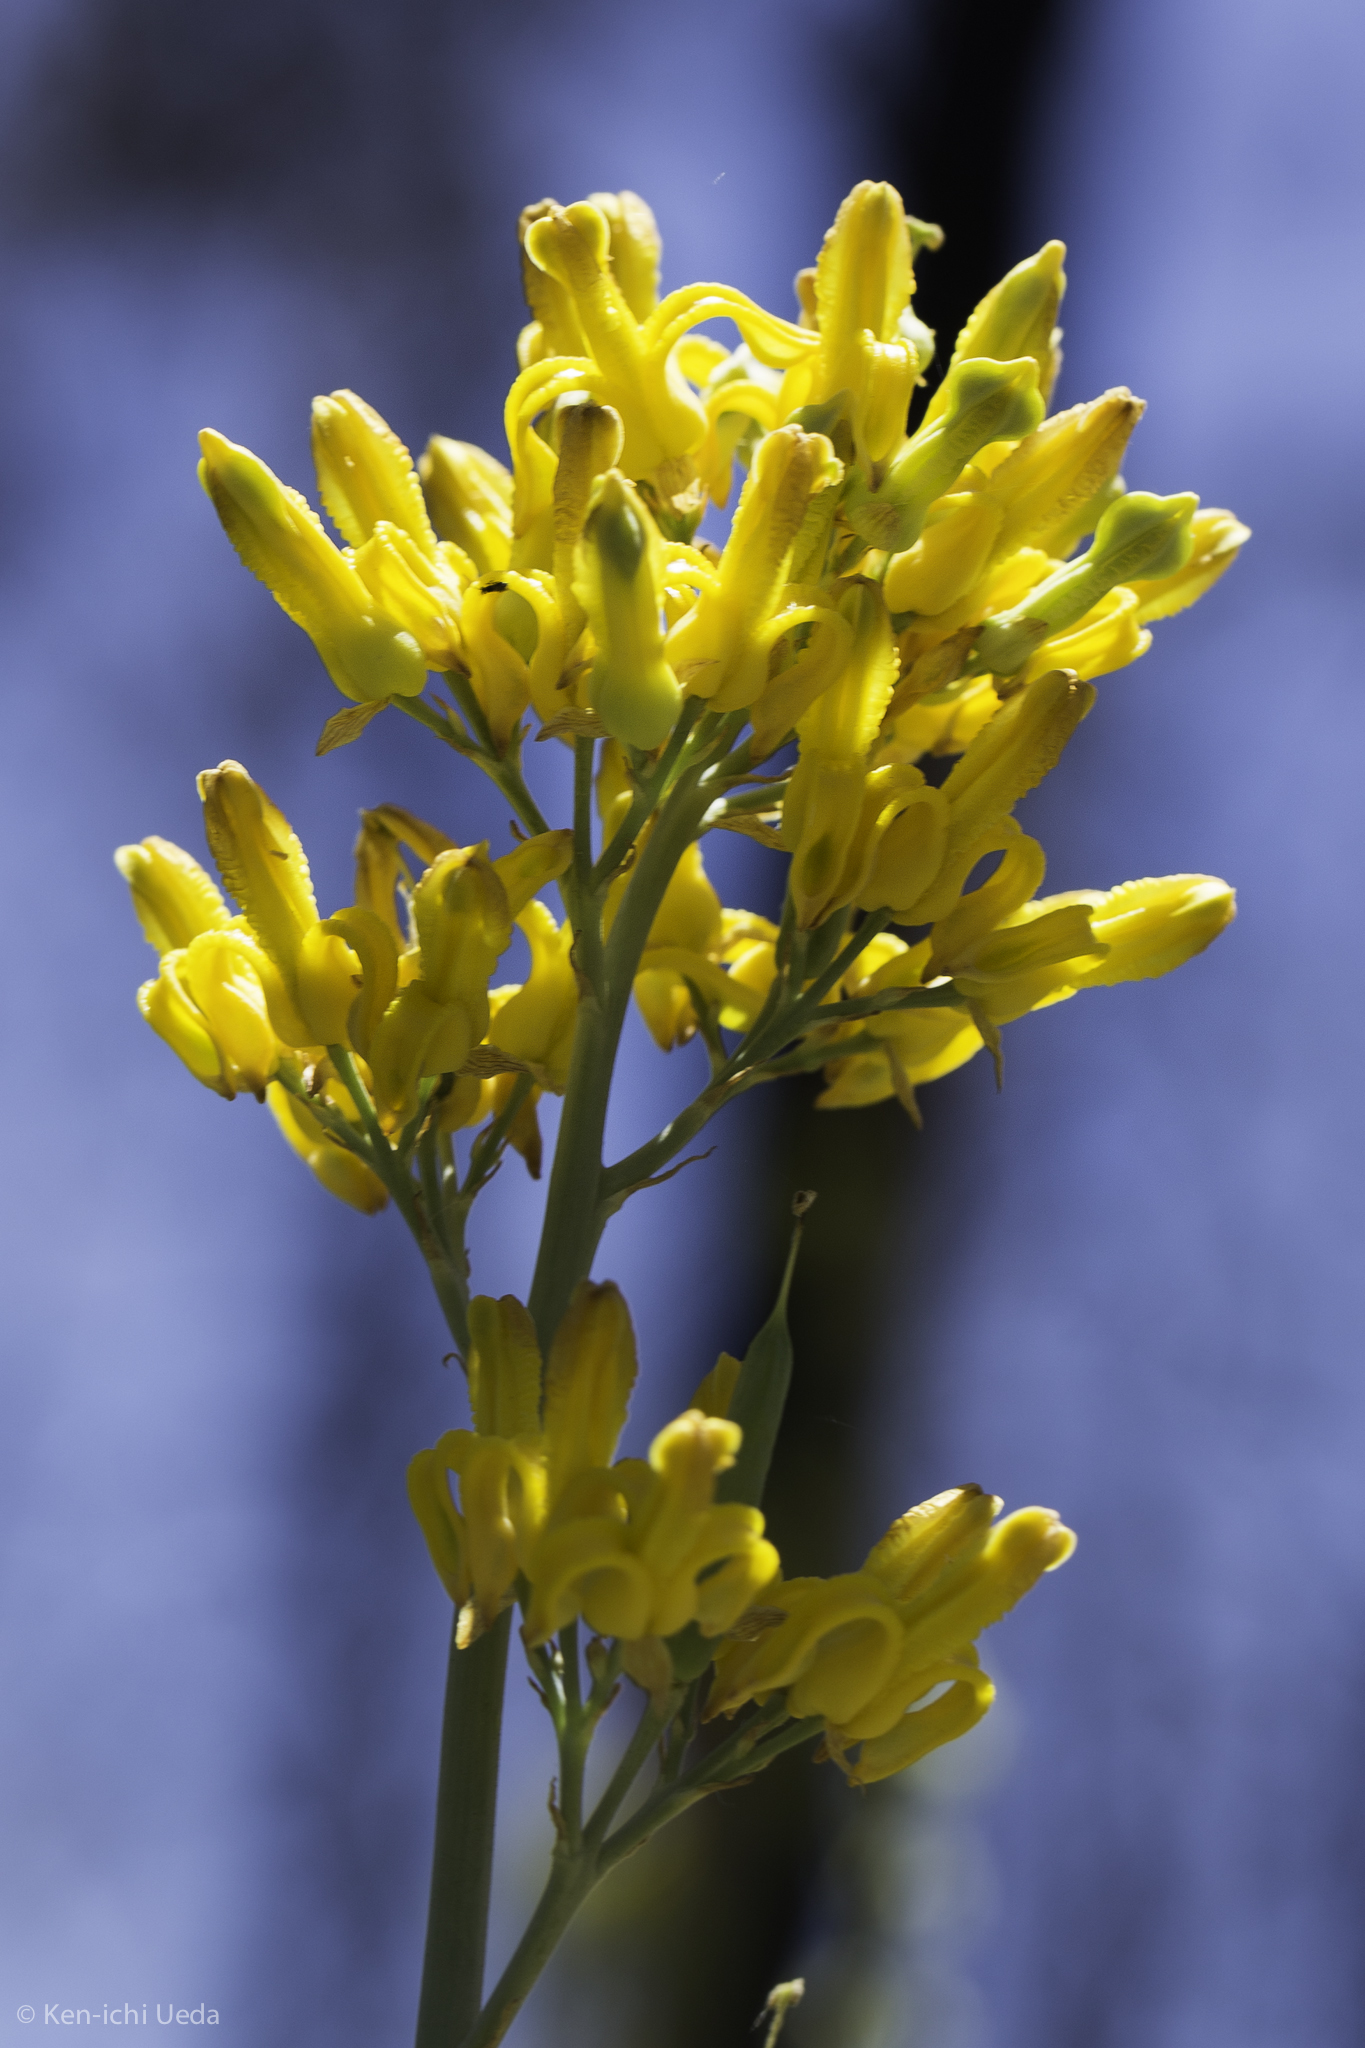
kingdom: Plantae
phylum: Tracheophyta
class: Magnoliopsida
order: Ranunculales
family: Papaveraceae
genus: Ehrendorferia
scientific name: Ehrendorferia chrysantha
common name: Golden eardrops
